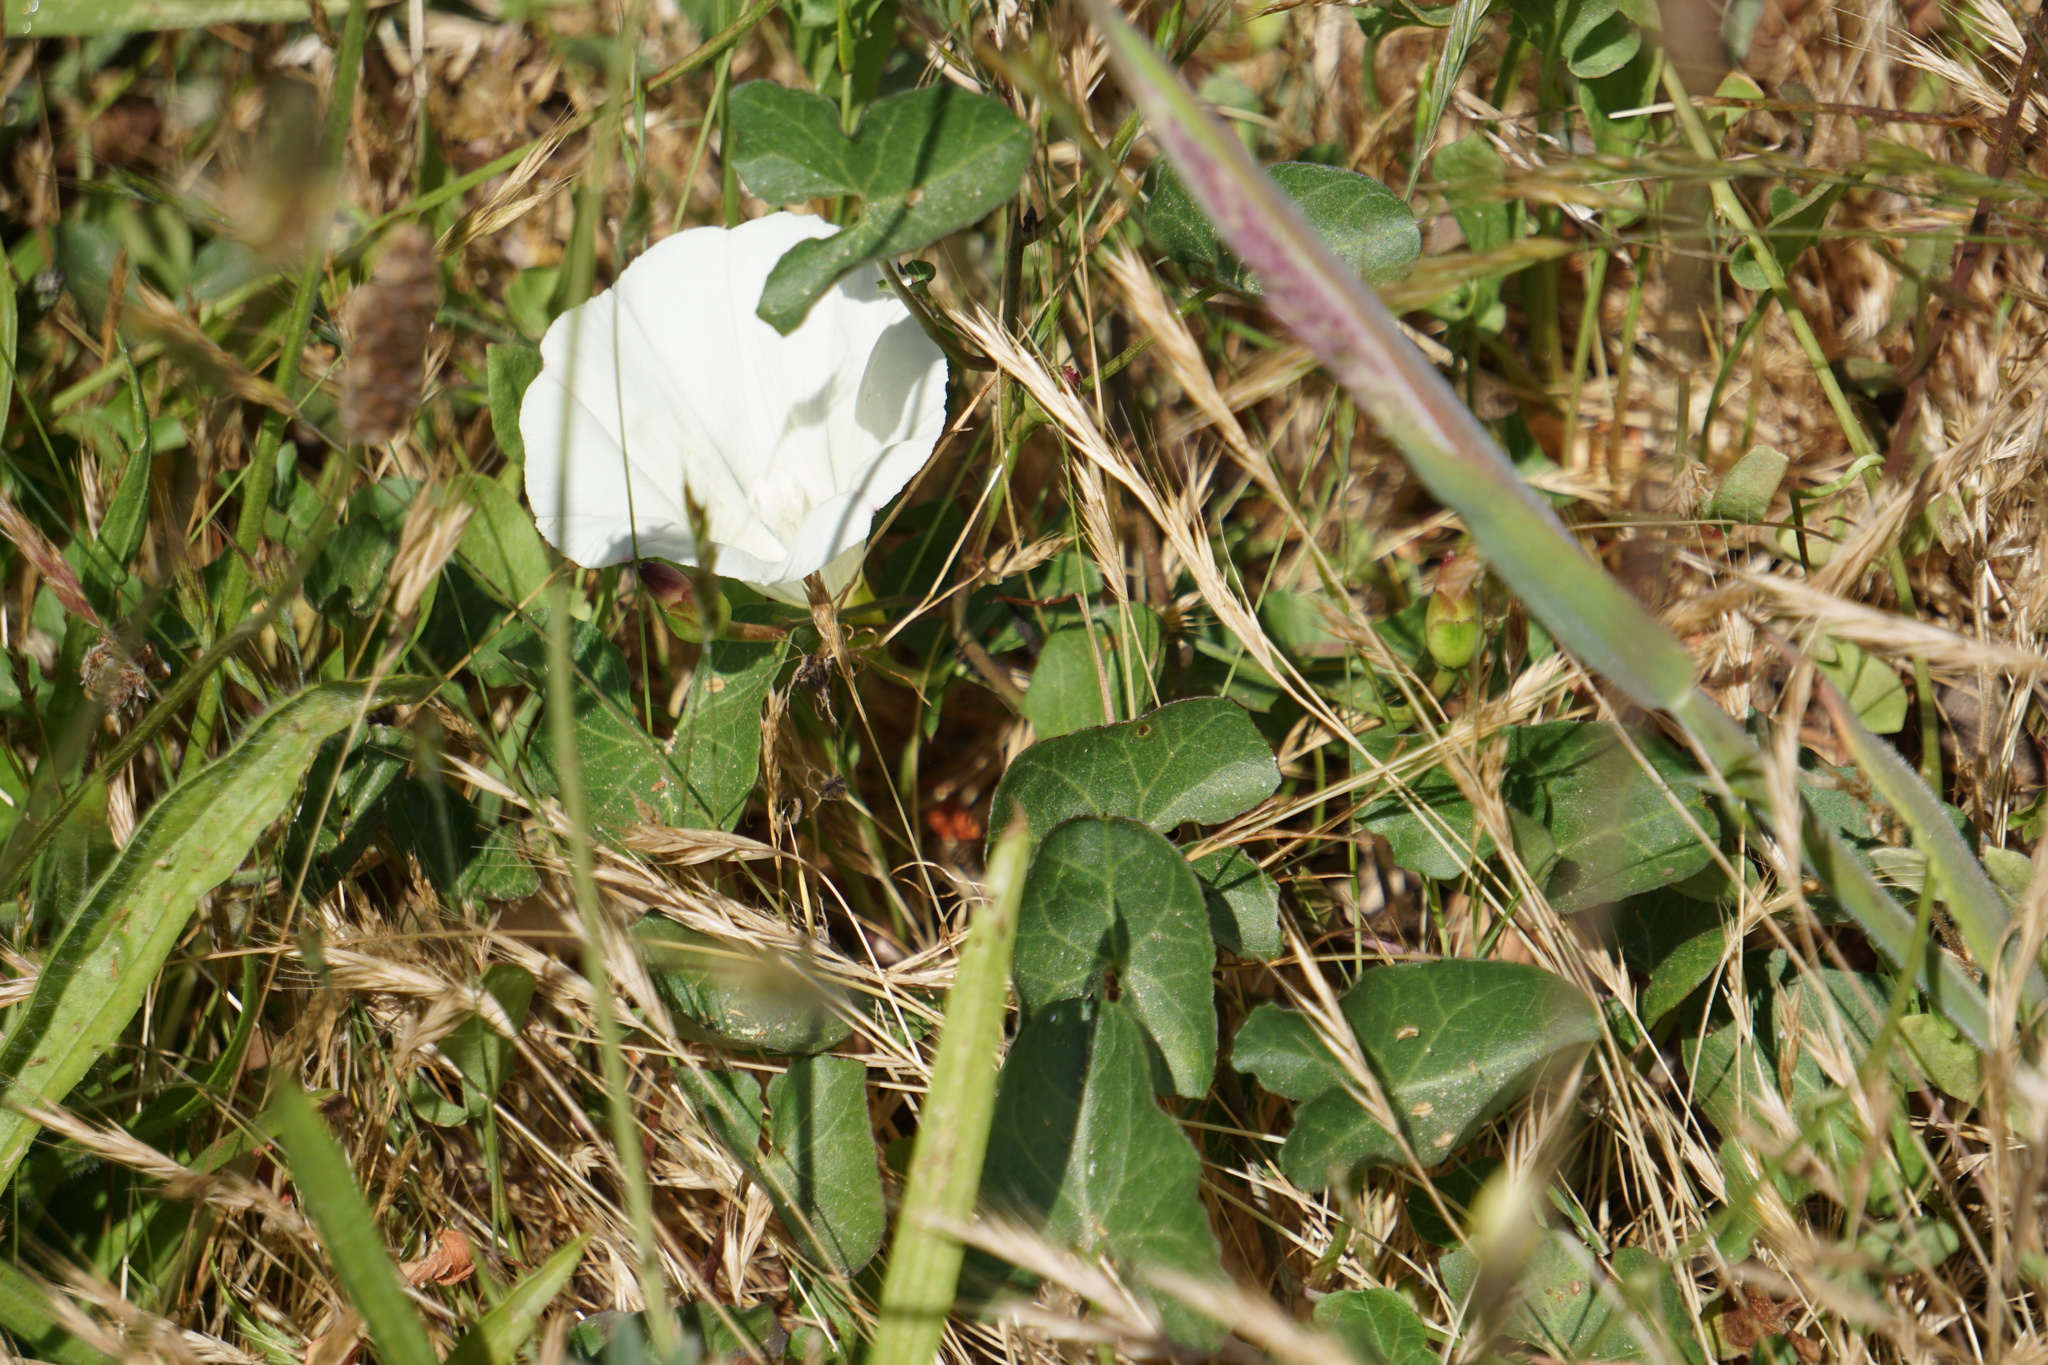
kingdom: Plantae
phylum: Tracheophyta
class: Magnoliopsida
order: Solanales
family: Convolvulaceae
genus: Calystegia
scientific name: Calystegia purpurata
